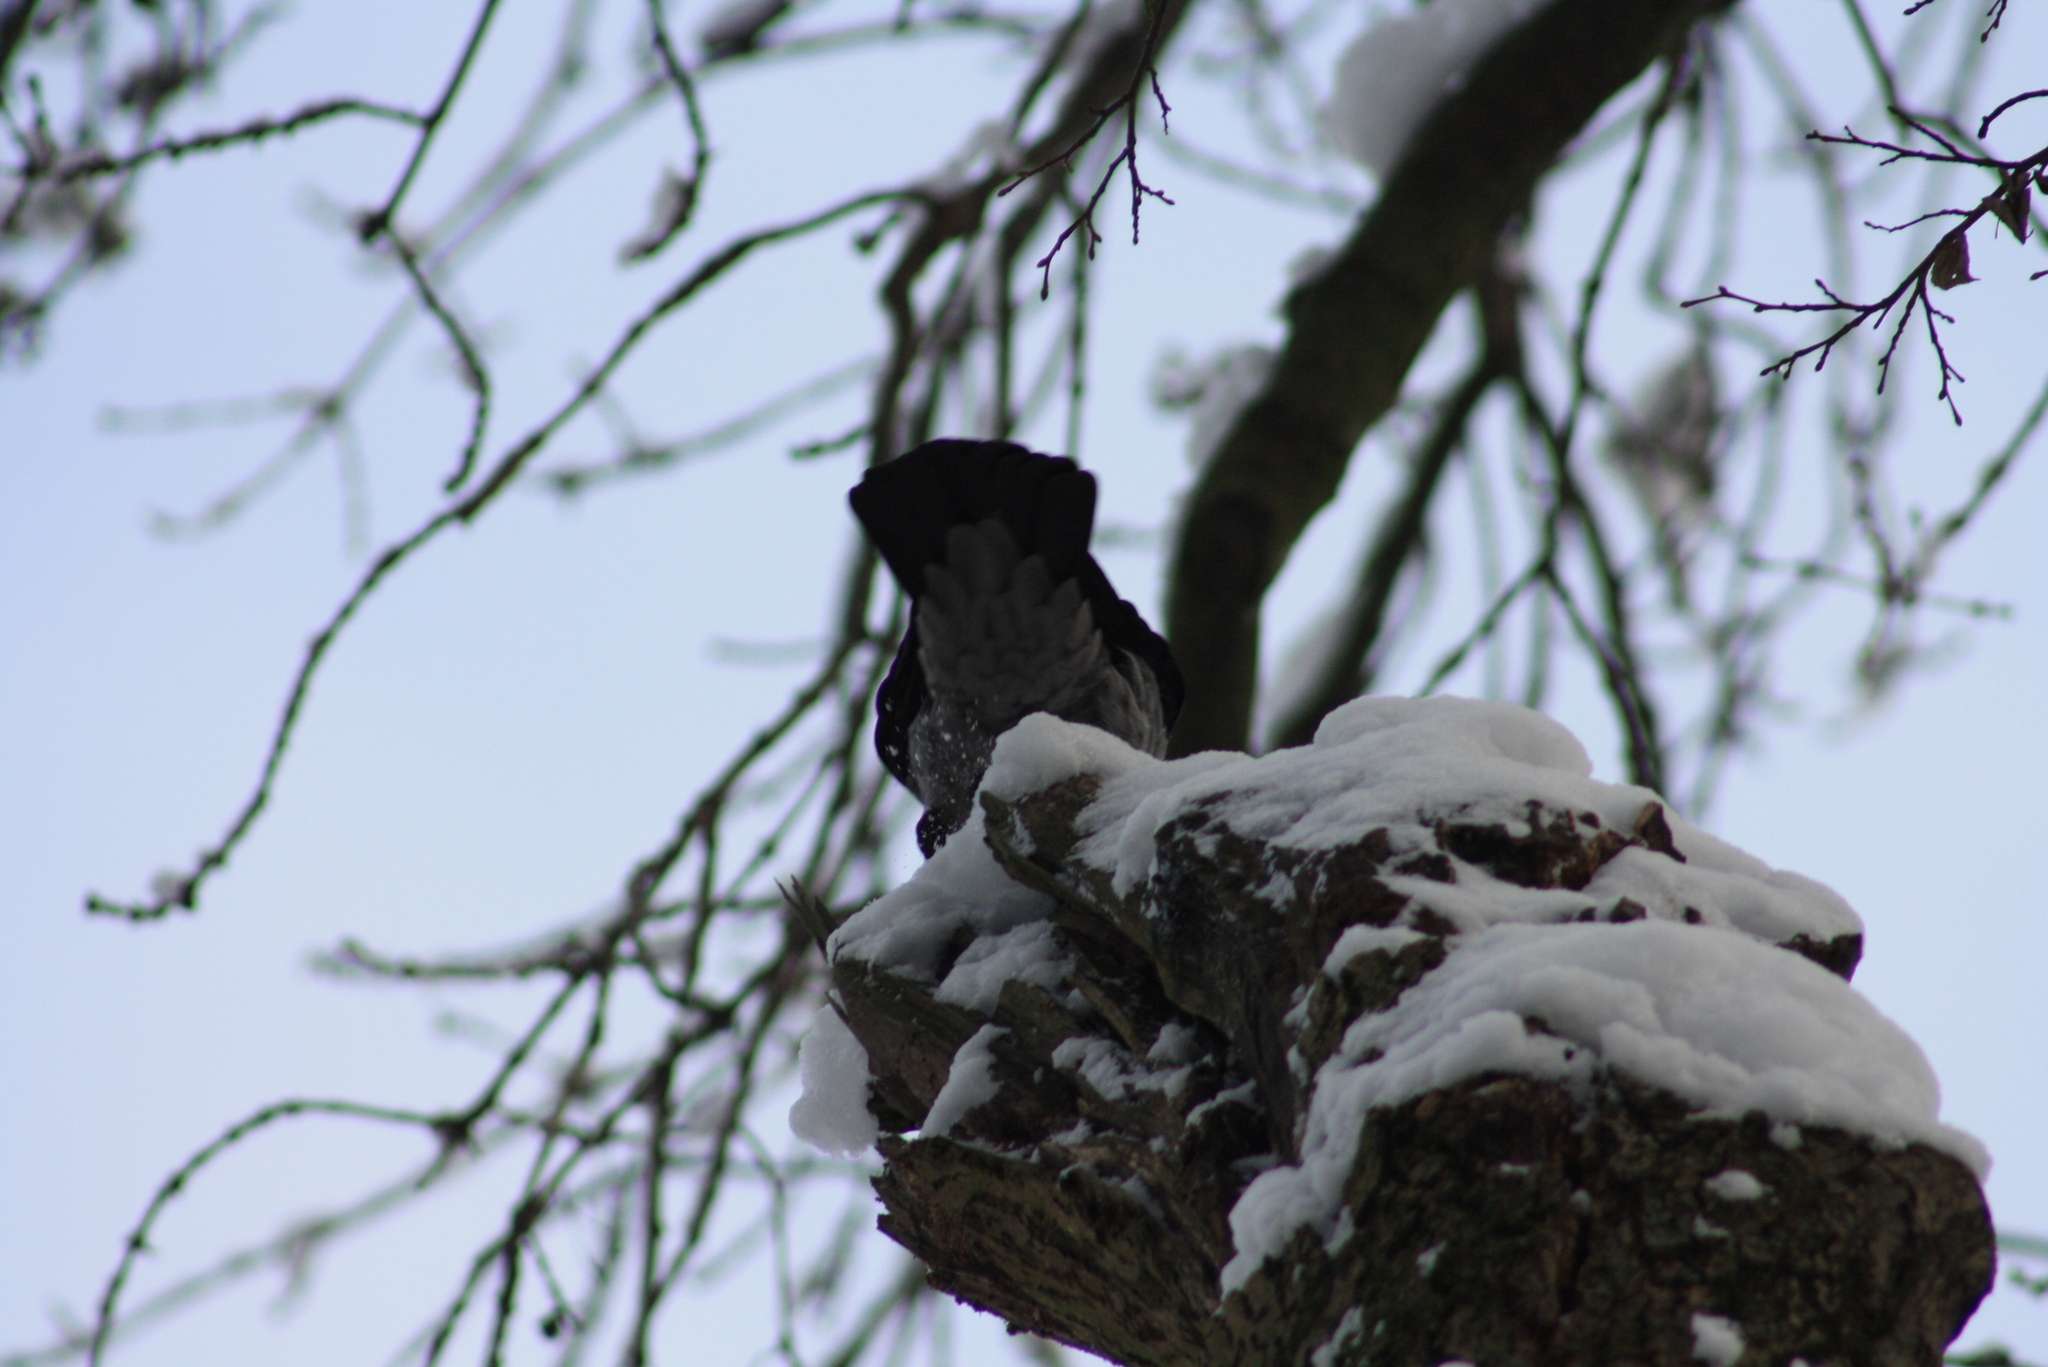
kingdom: Animalia
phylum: Chordata
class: Aves
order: Passeriformes
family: Corvidae
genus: Corvus
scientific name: Corvus cornix
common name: Hooded crow
